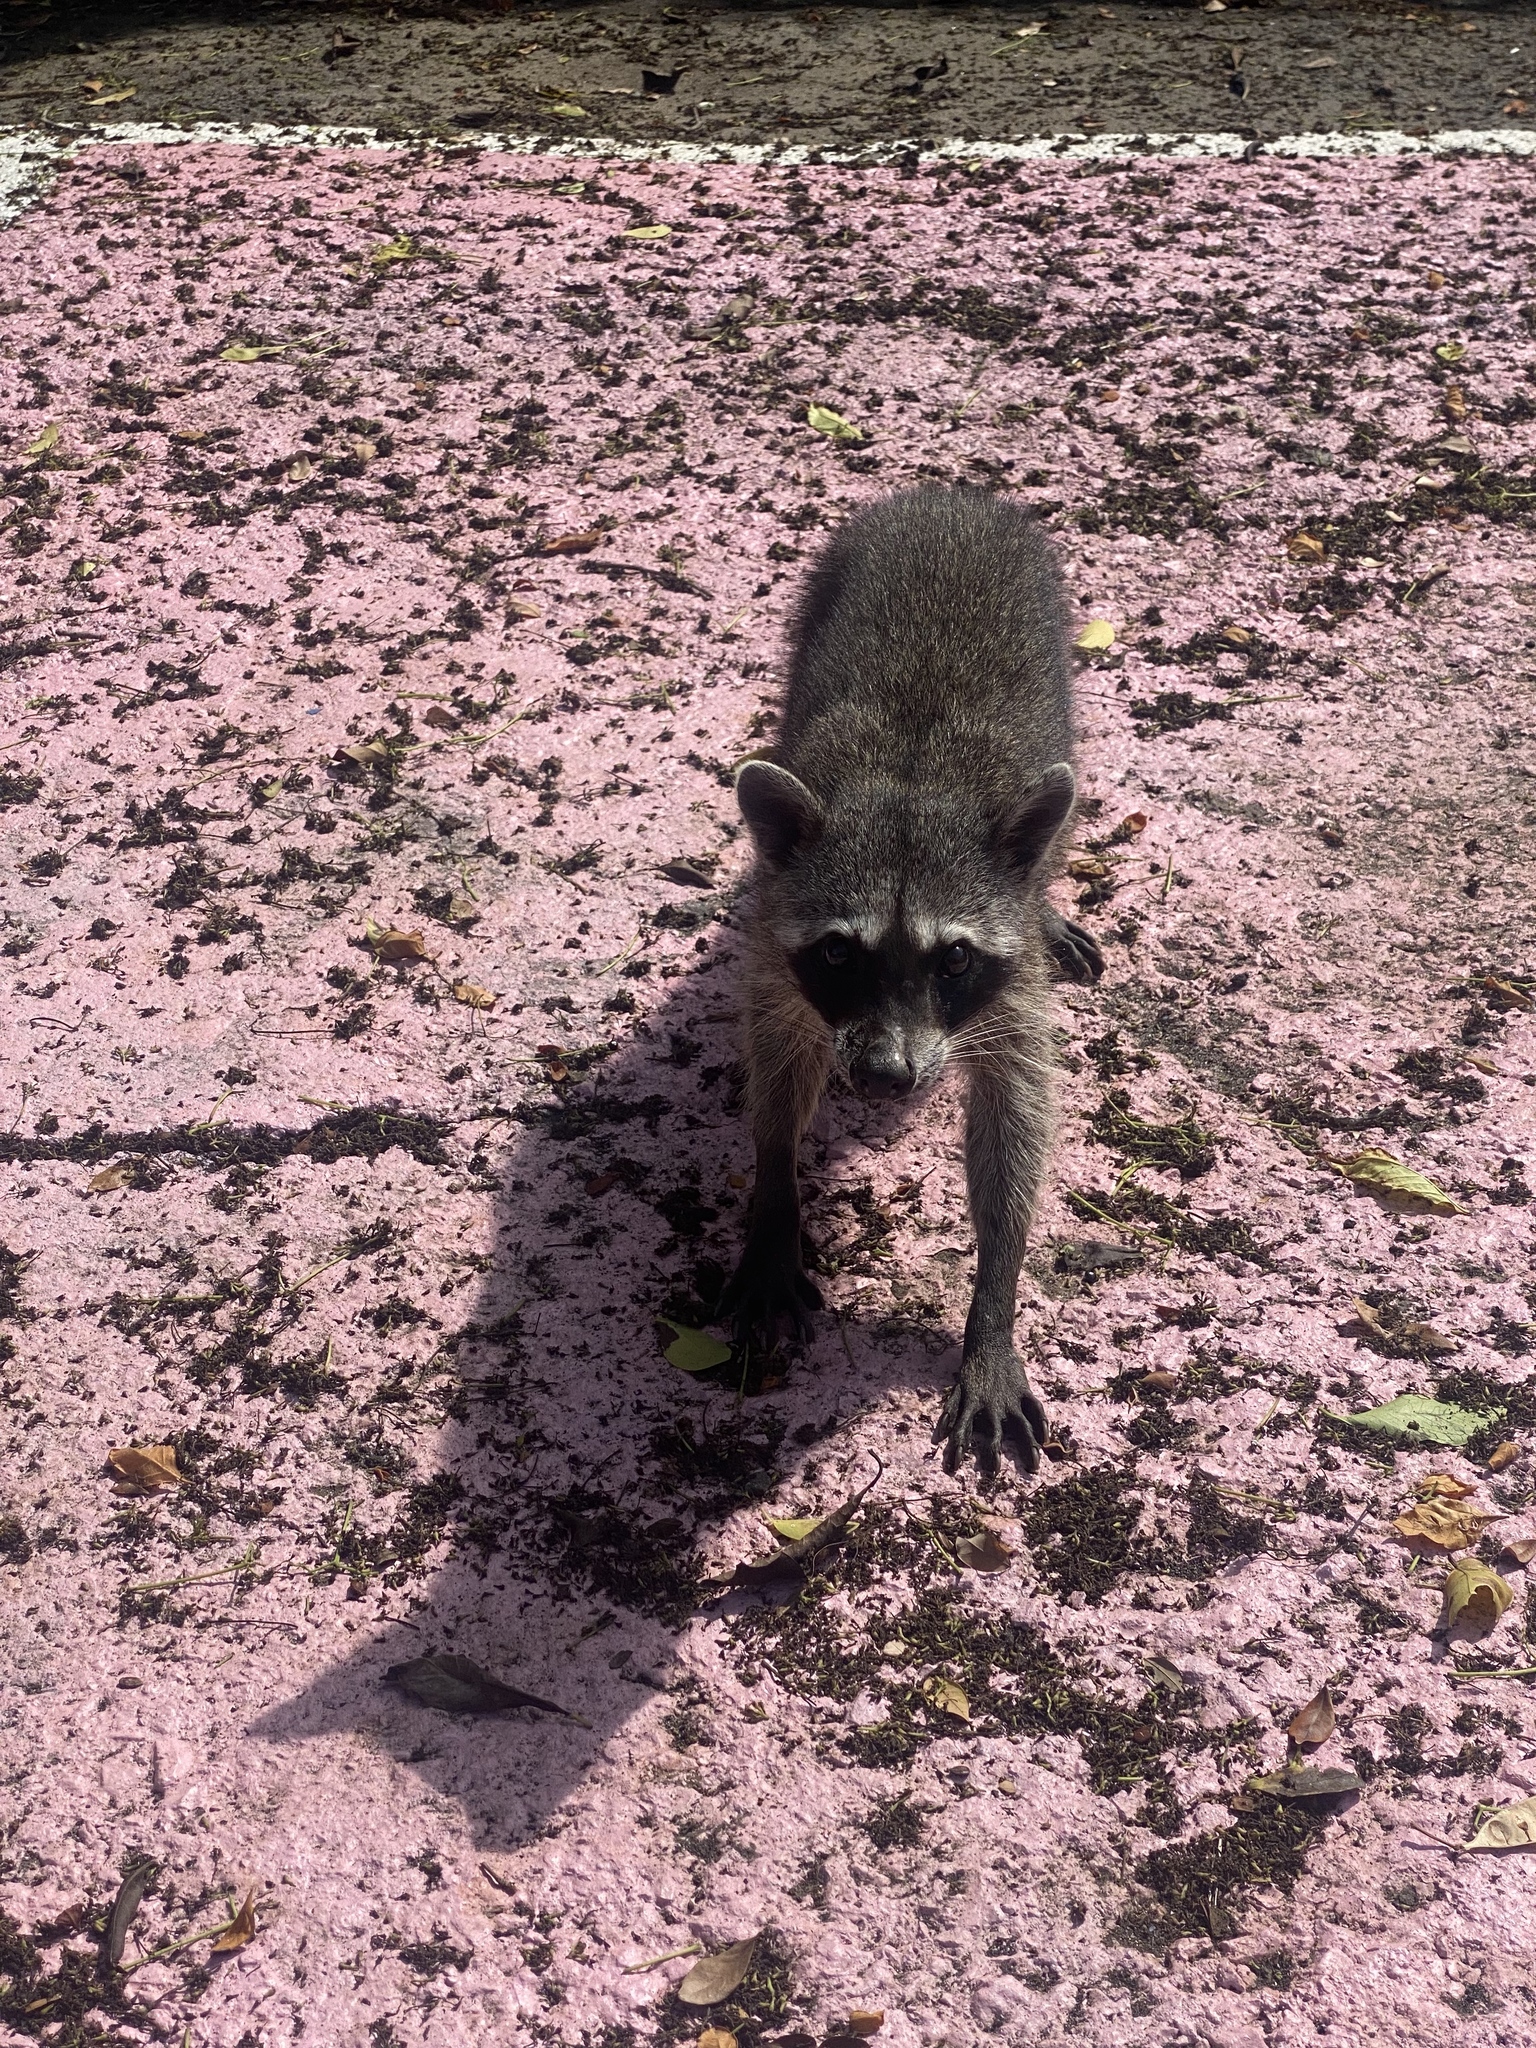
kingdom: Animalia
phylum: Chordata
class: Mammalia
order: Carnivora
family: Procyonidae
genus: Procyon
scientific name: Procyon lotor
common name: Raccoon
